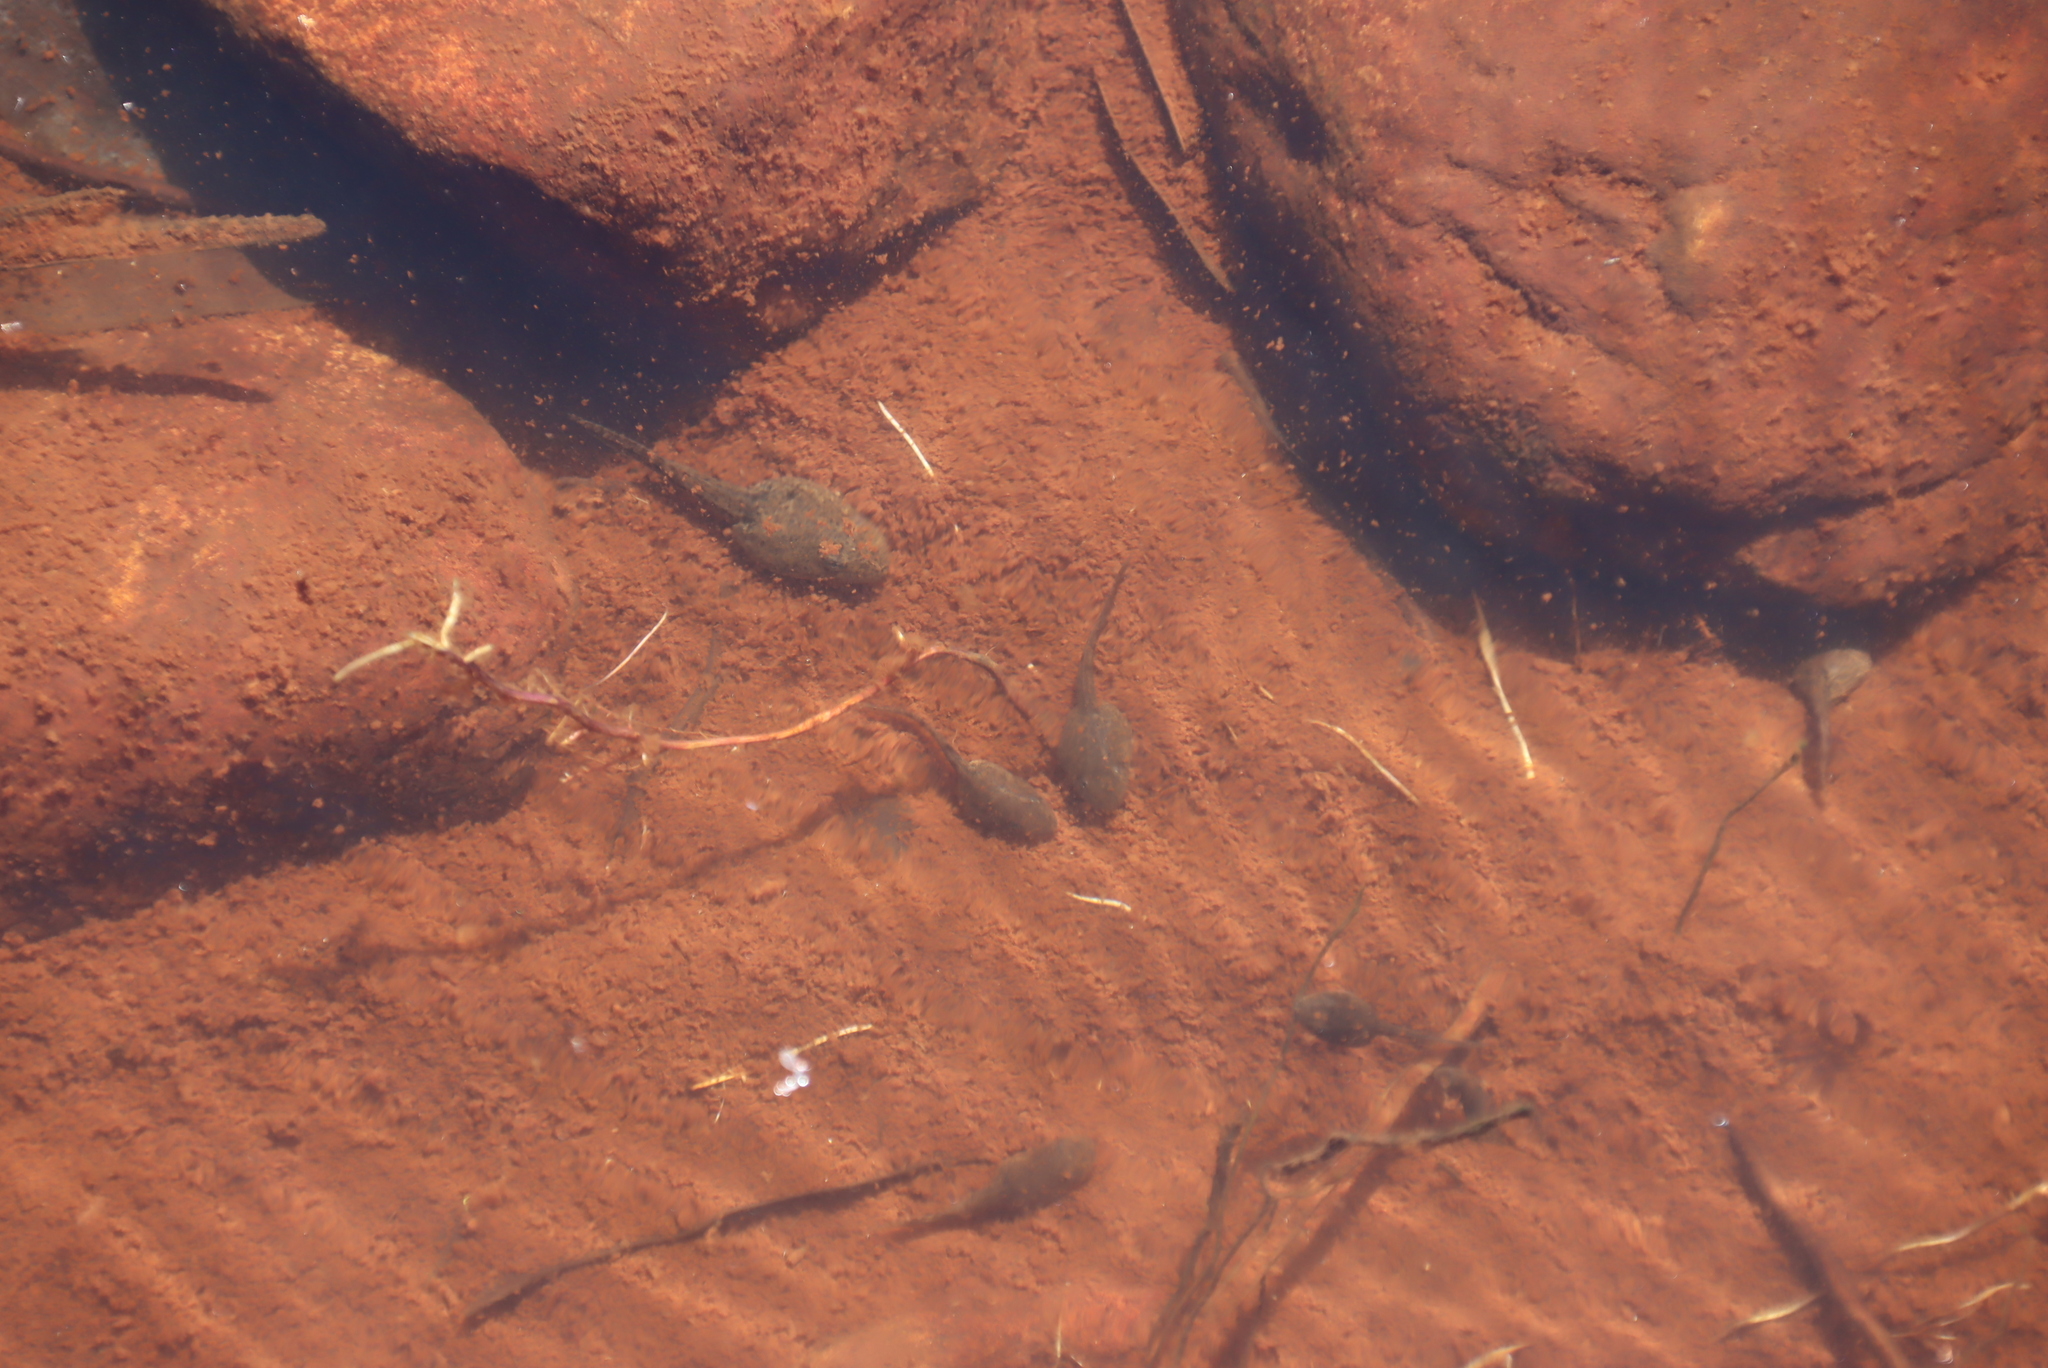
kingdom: Animalia
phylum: Chordata
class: Amphibia
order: Anura
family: Pyxicephalidae
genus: Amietia
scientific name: Amietia fuscigula
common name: Cape rana
